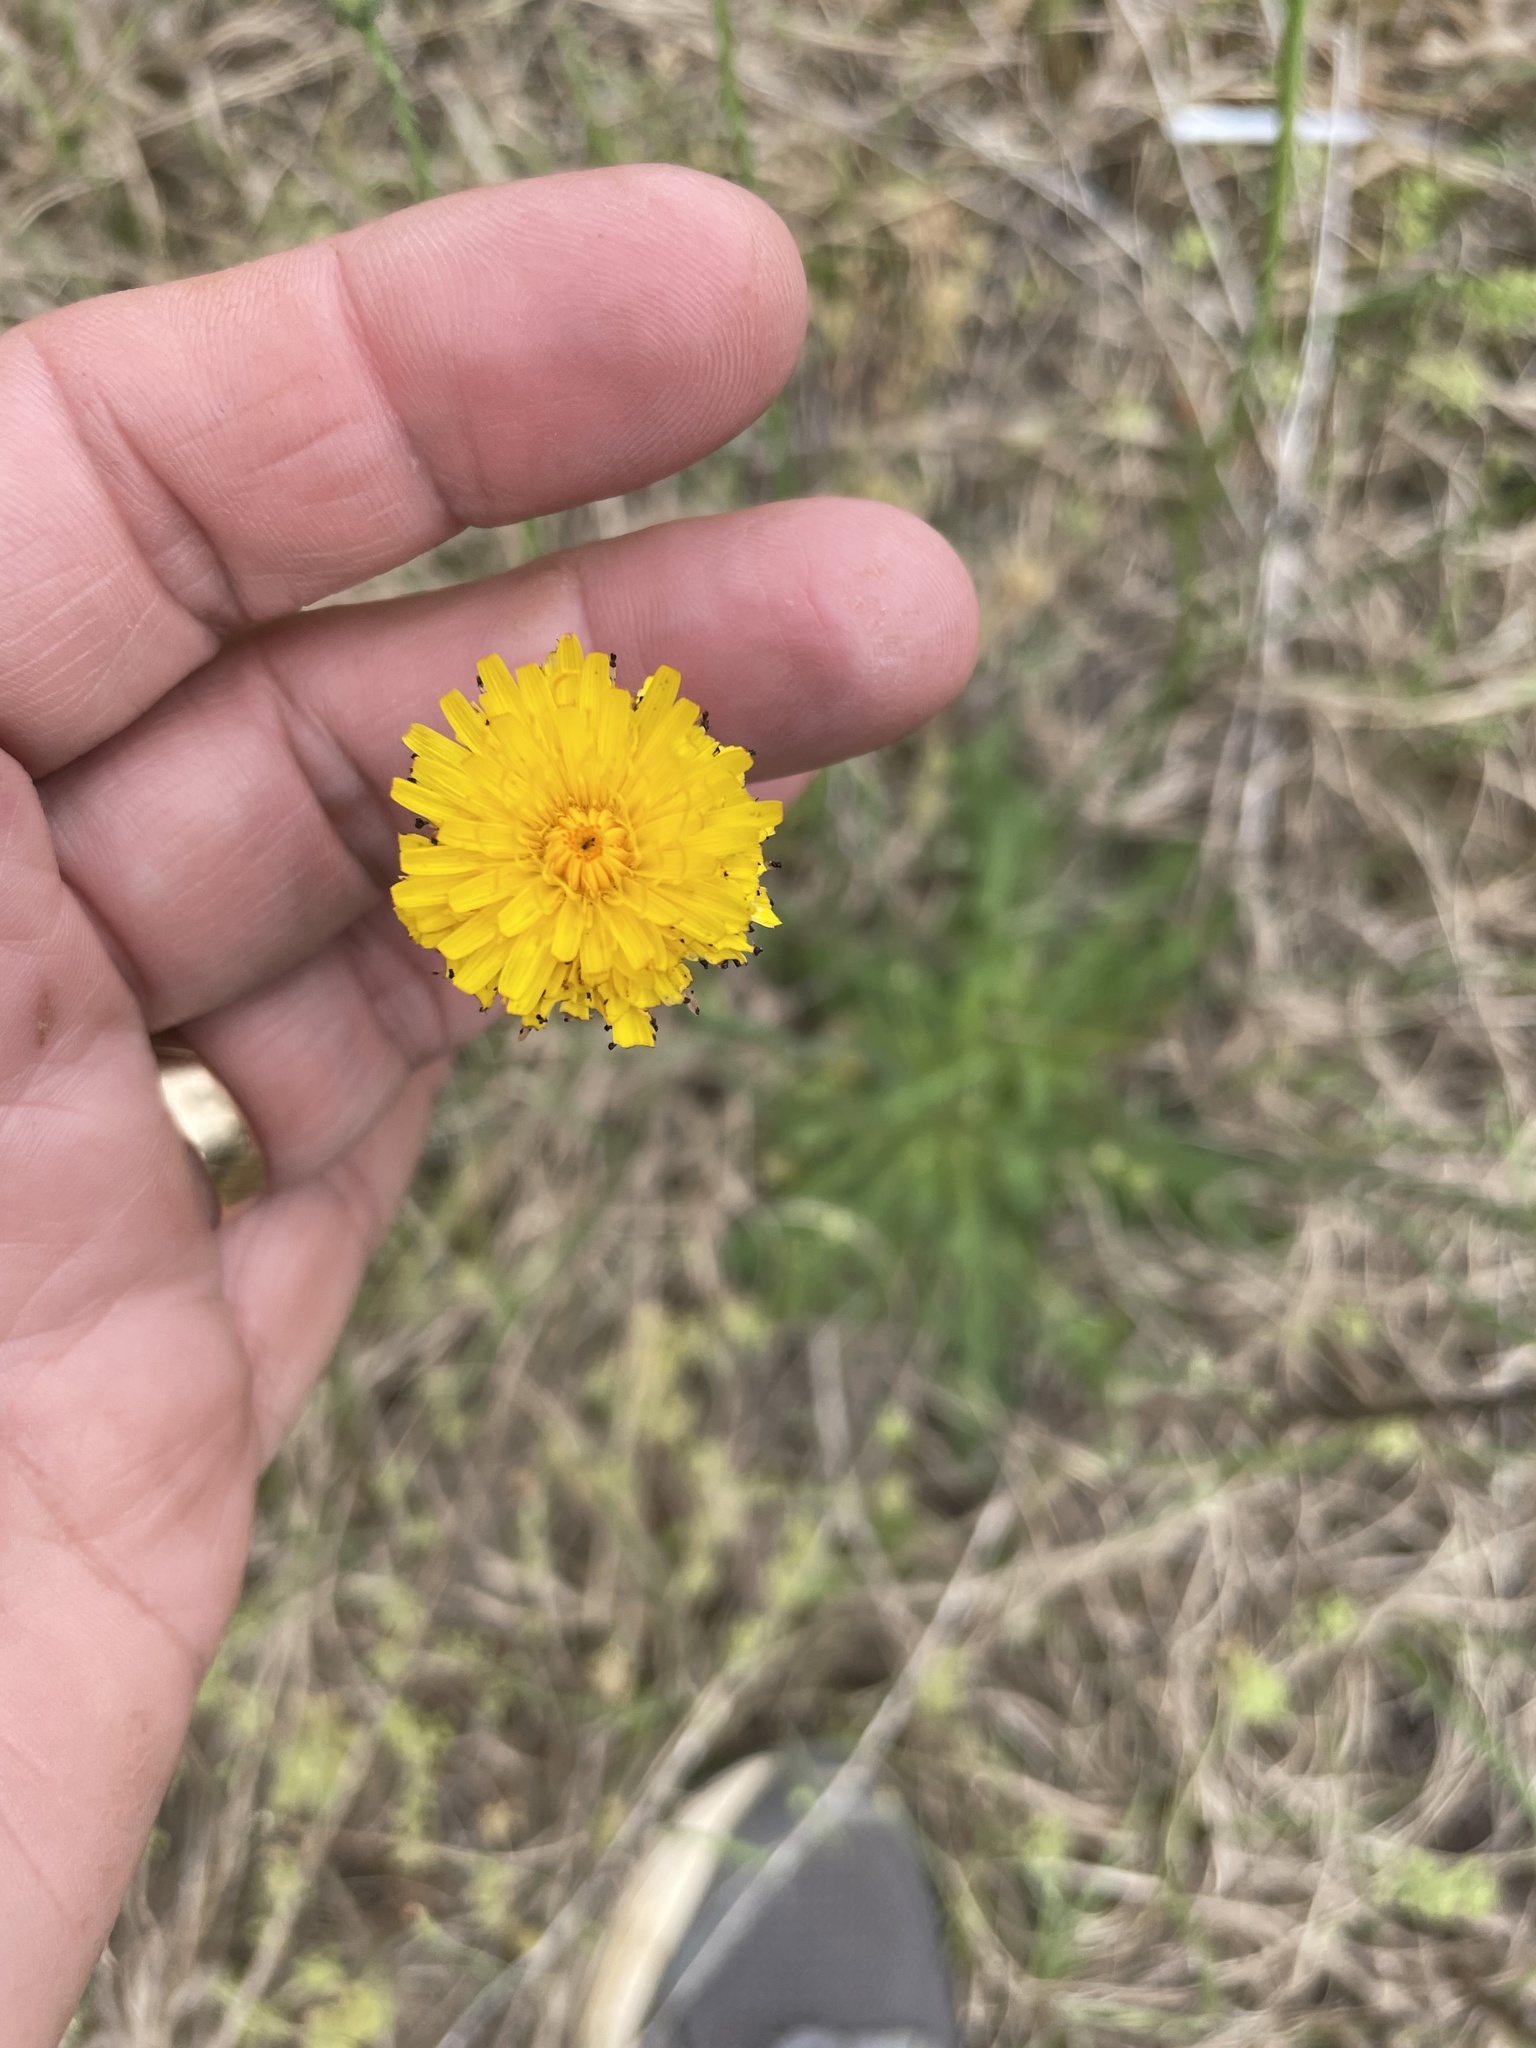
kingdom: Plantae
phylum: Tracheophyta
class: Magnoliopsida
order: Asterales
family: Asteraceae
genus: Hypochaeris
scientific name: Hypochaeris radicata
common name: Flatweed
